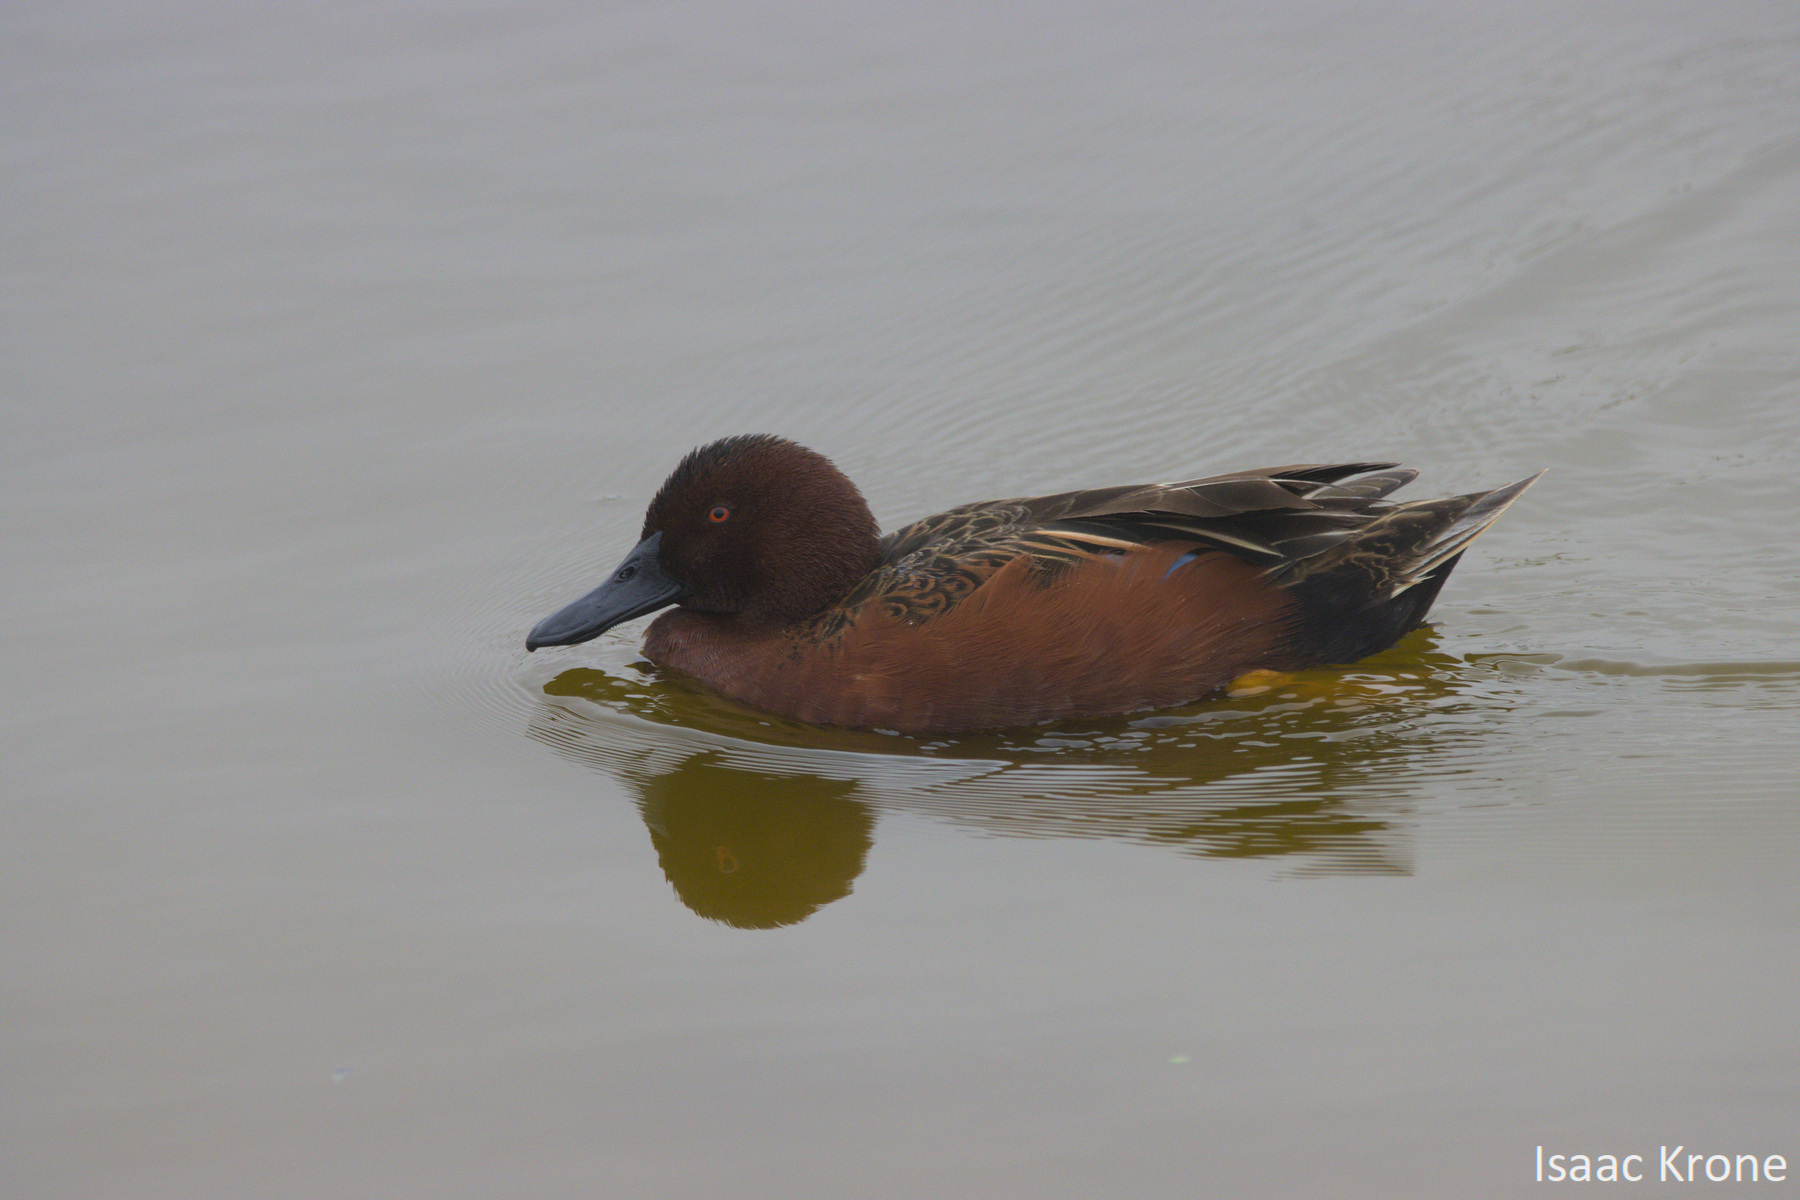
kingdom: Animalia
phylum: Chordata
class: Aves
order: Anseriformes
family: Anatidae
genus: Spatula
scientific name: Spatula cyanoptera
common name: Cinnamon teal
